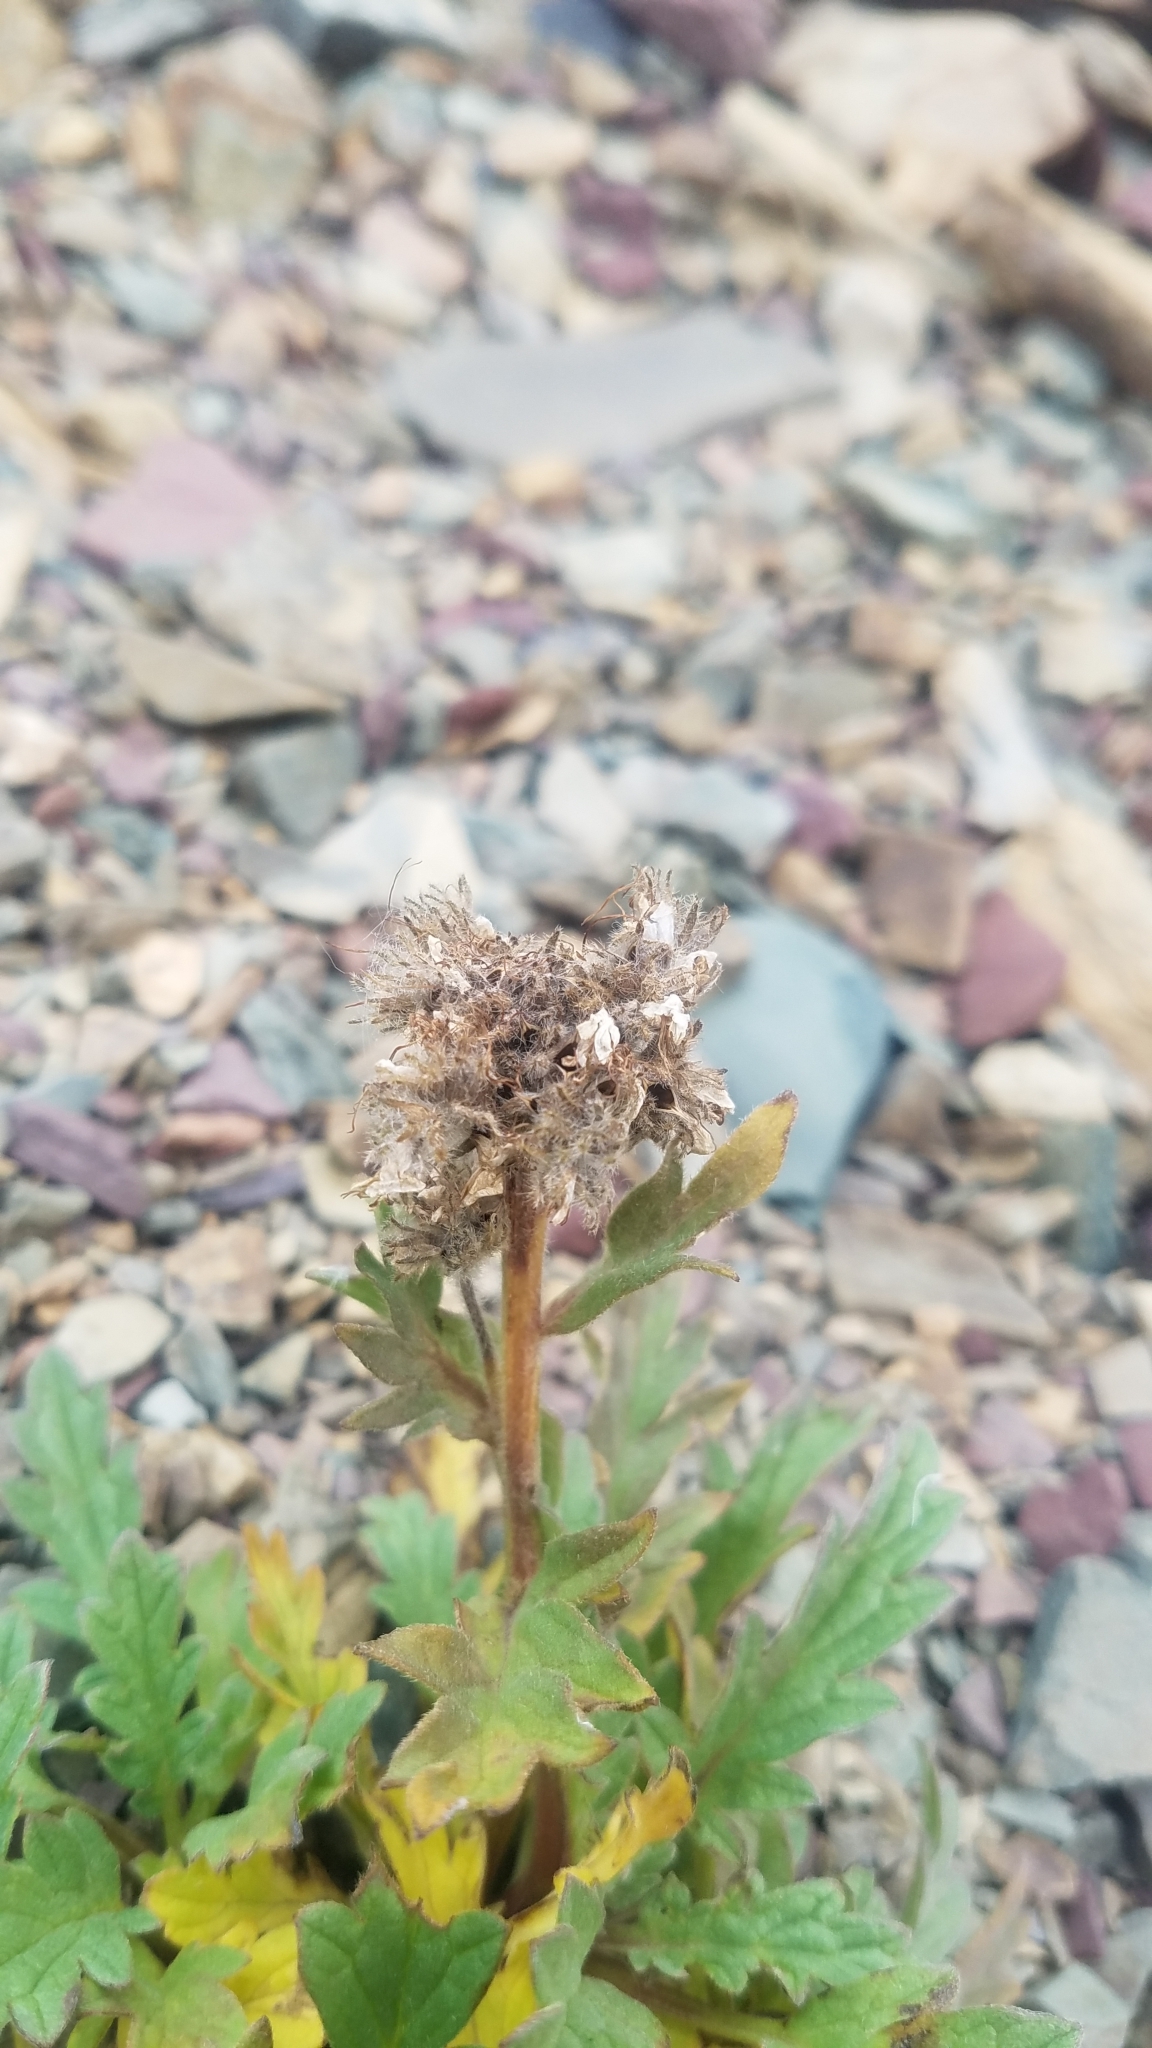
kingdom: Plantae
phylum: Tracheophyta
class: Magnoliopsida
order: Boraginales
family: Hydrophyllaceae
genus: Phacelia
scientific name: Phacelia lyallii
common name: Lyall's phacelia
